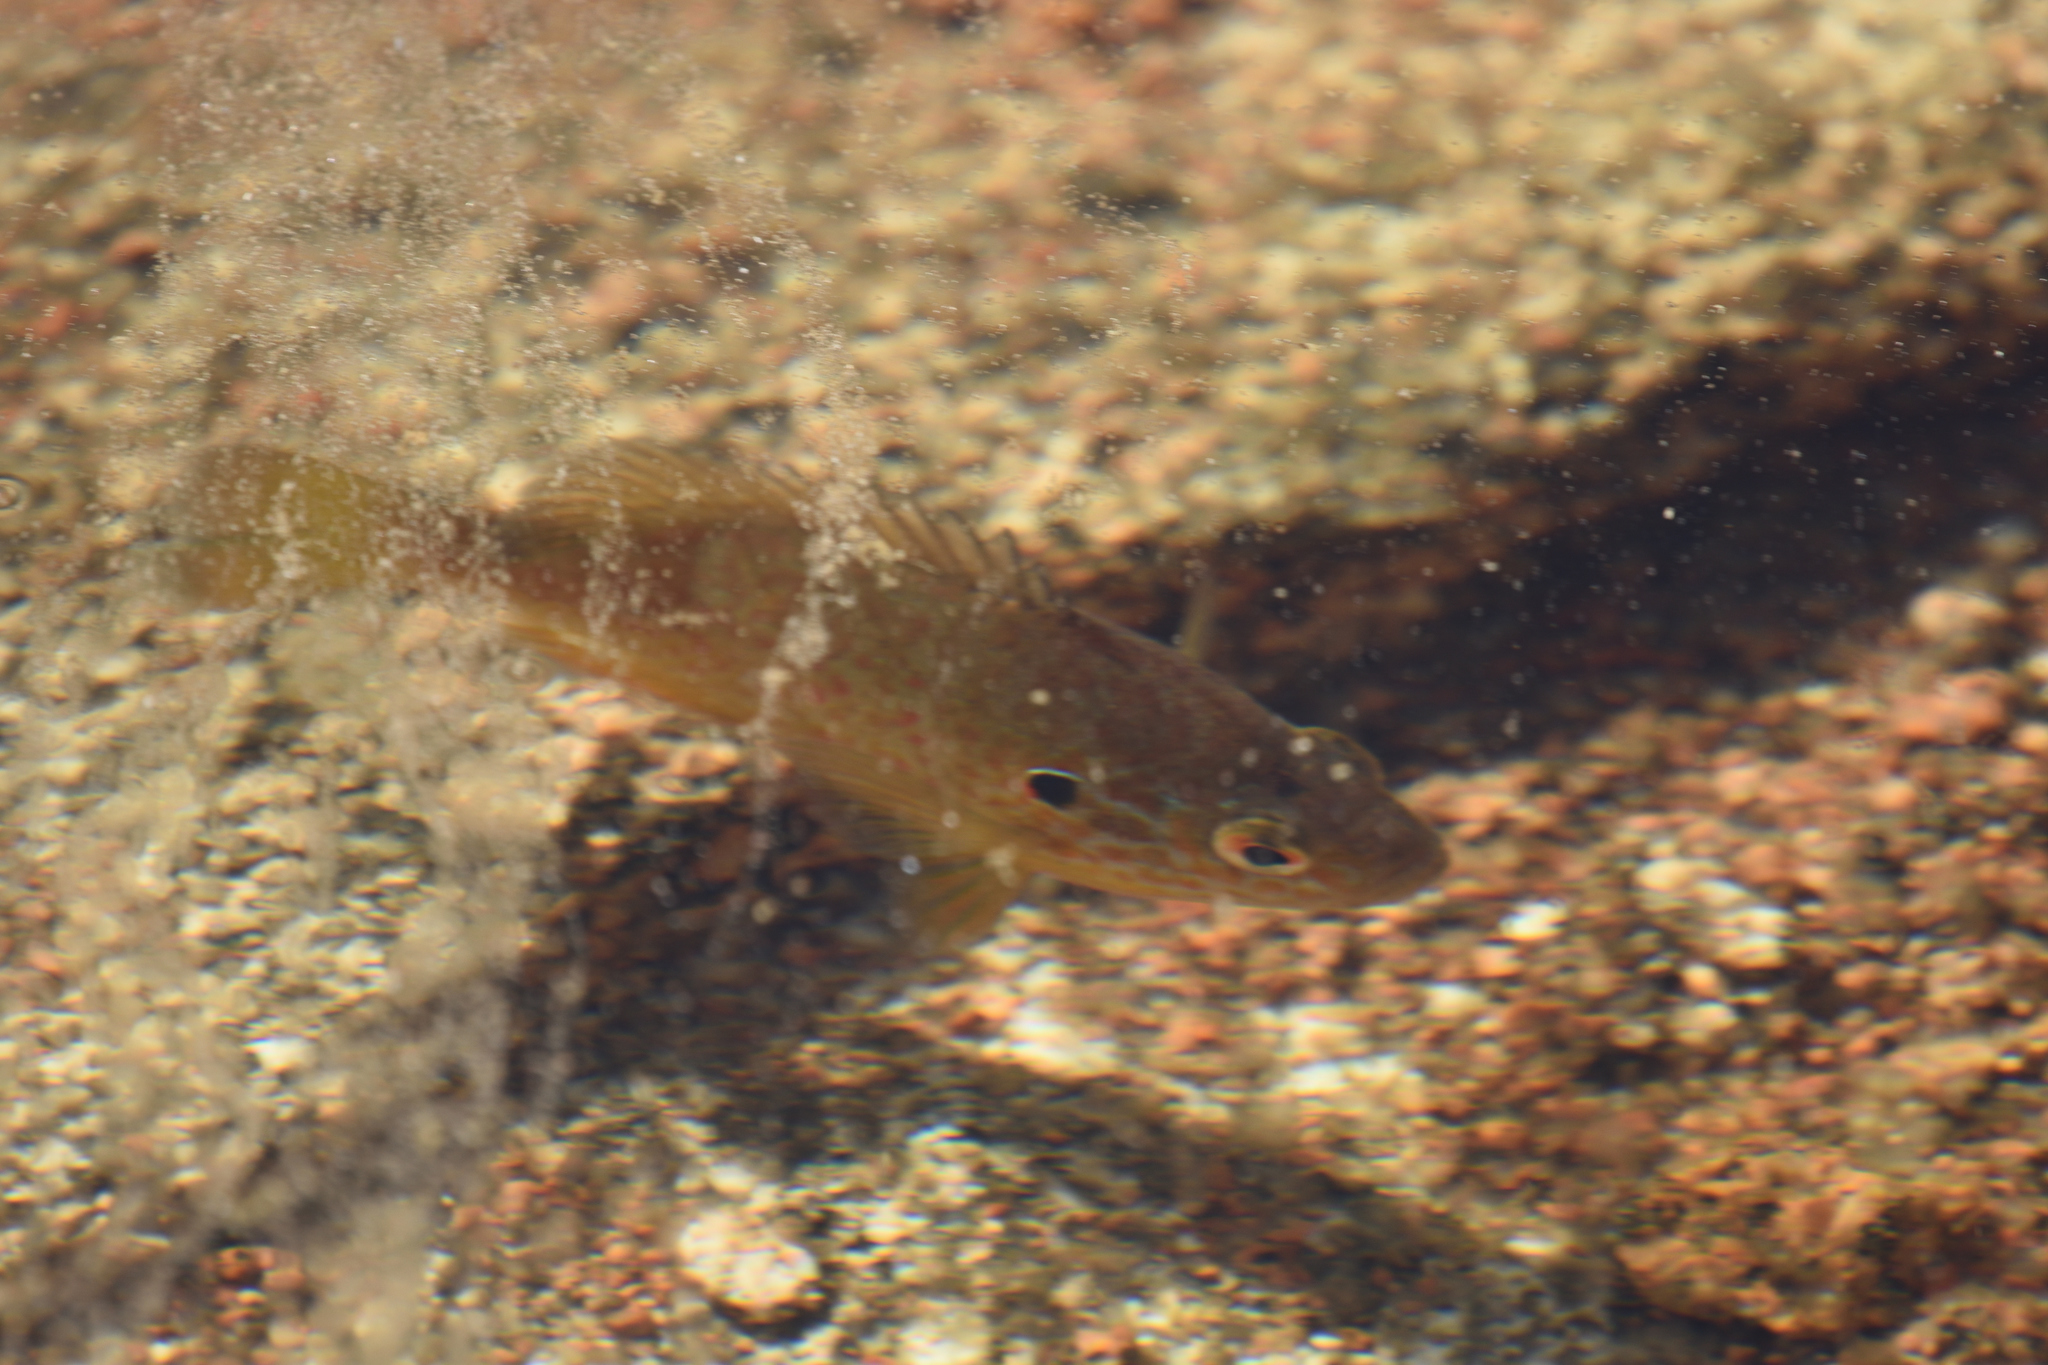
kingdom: Animalia
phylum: Chordata
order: Perciformes
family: Centrarchidae
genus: Lepomis
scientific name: Lepomis gibbosus
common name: Pumpkinseed
